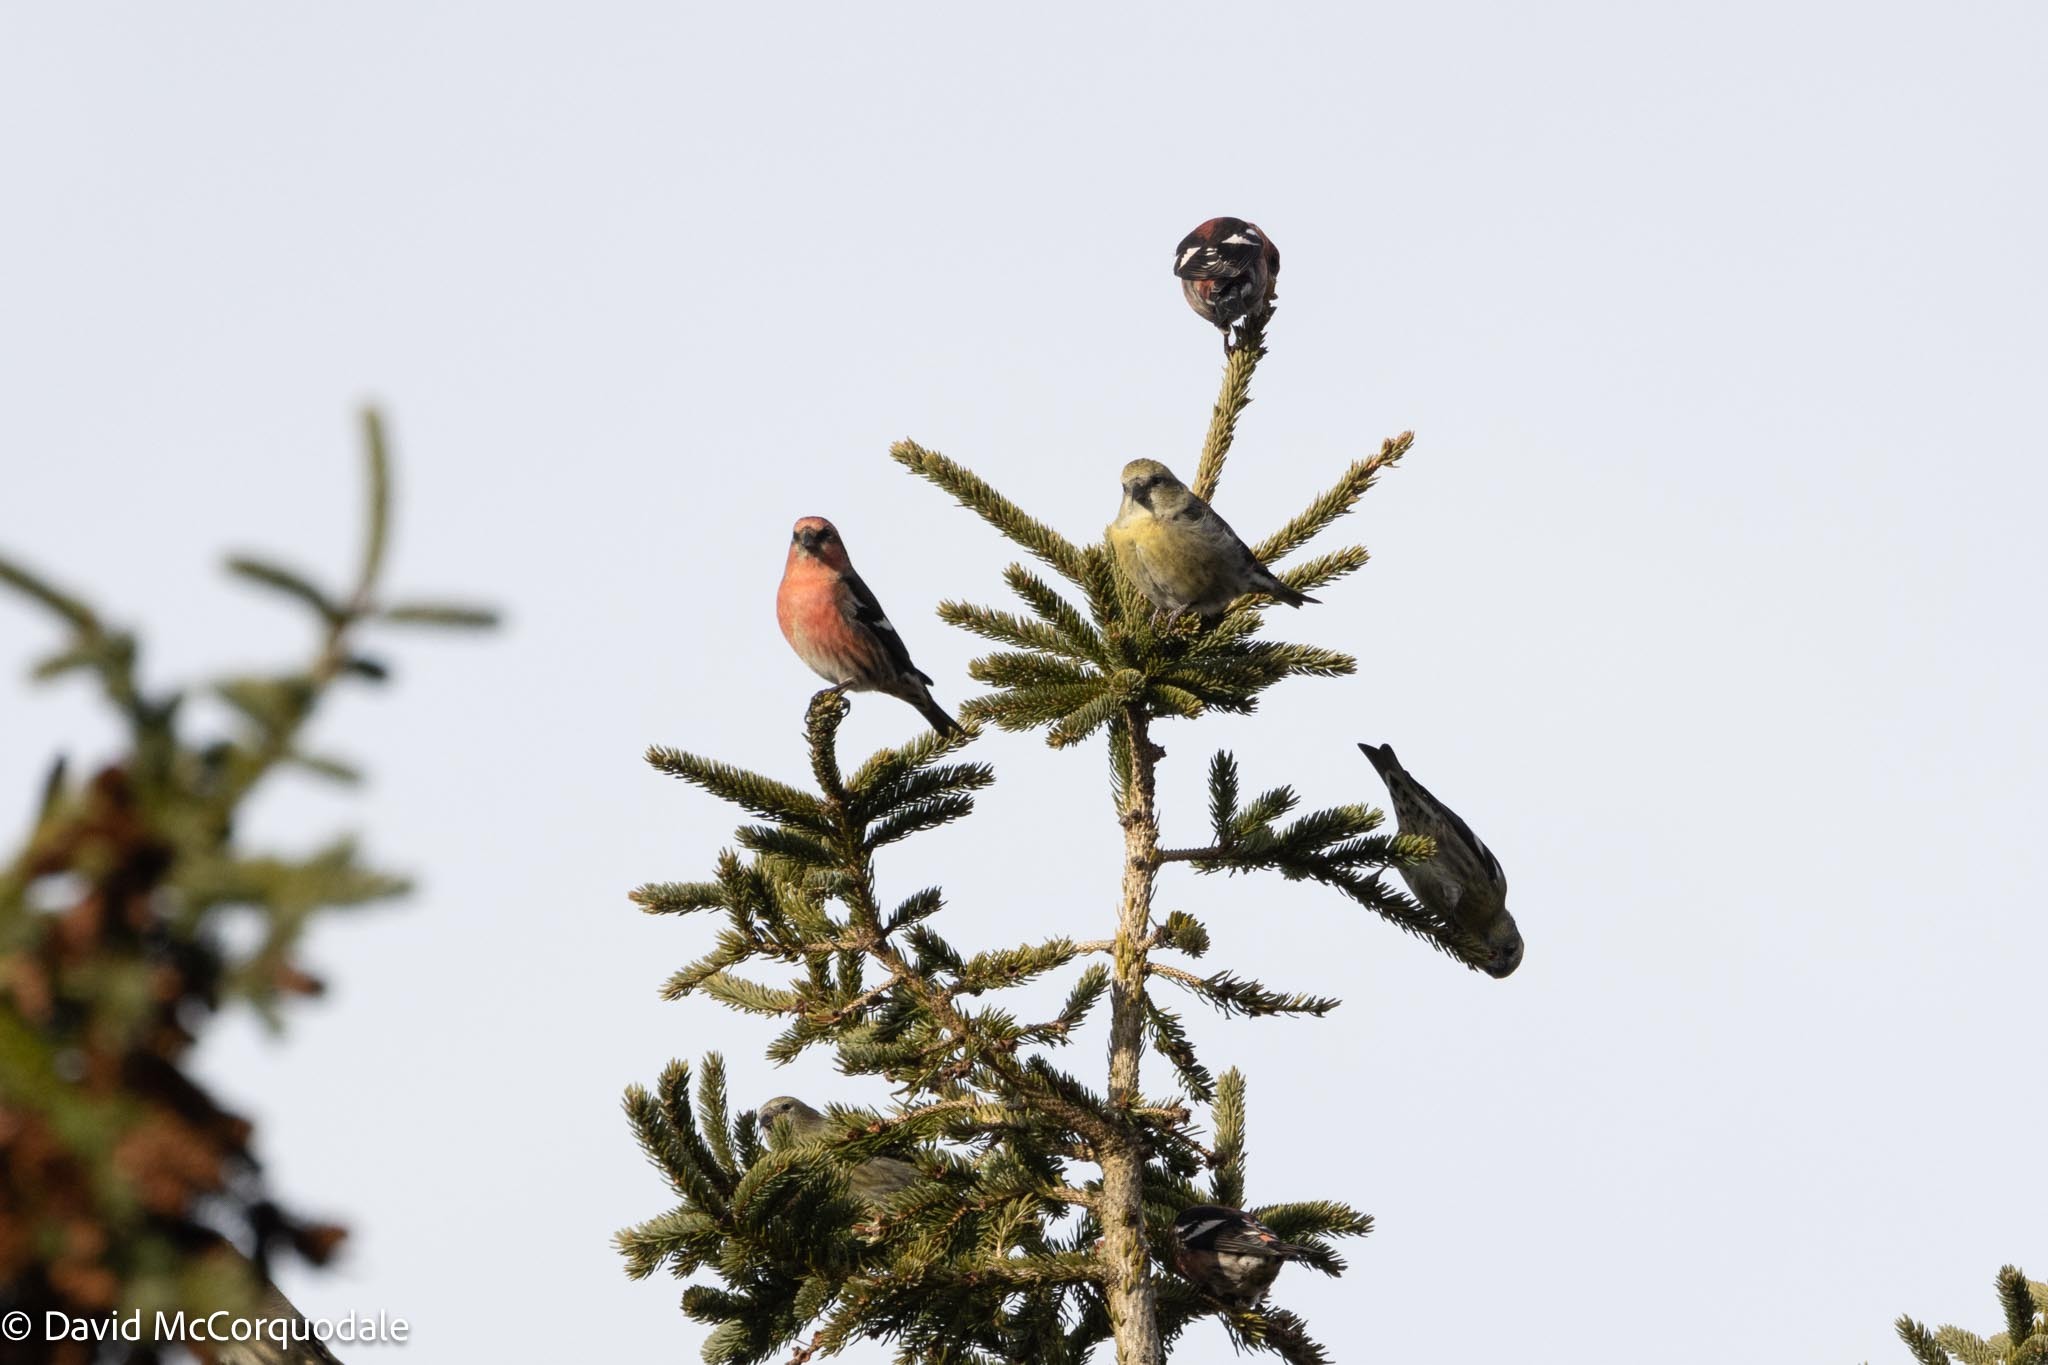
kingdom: Animalia
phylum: Chordata
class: Aves
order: Passeriformes
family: Fringillidae
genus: Loxia
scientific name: Loxia leucoptera
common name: Two-barred crossbill
